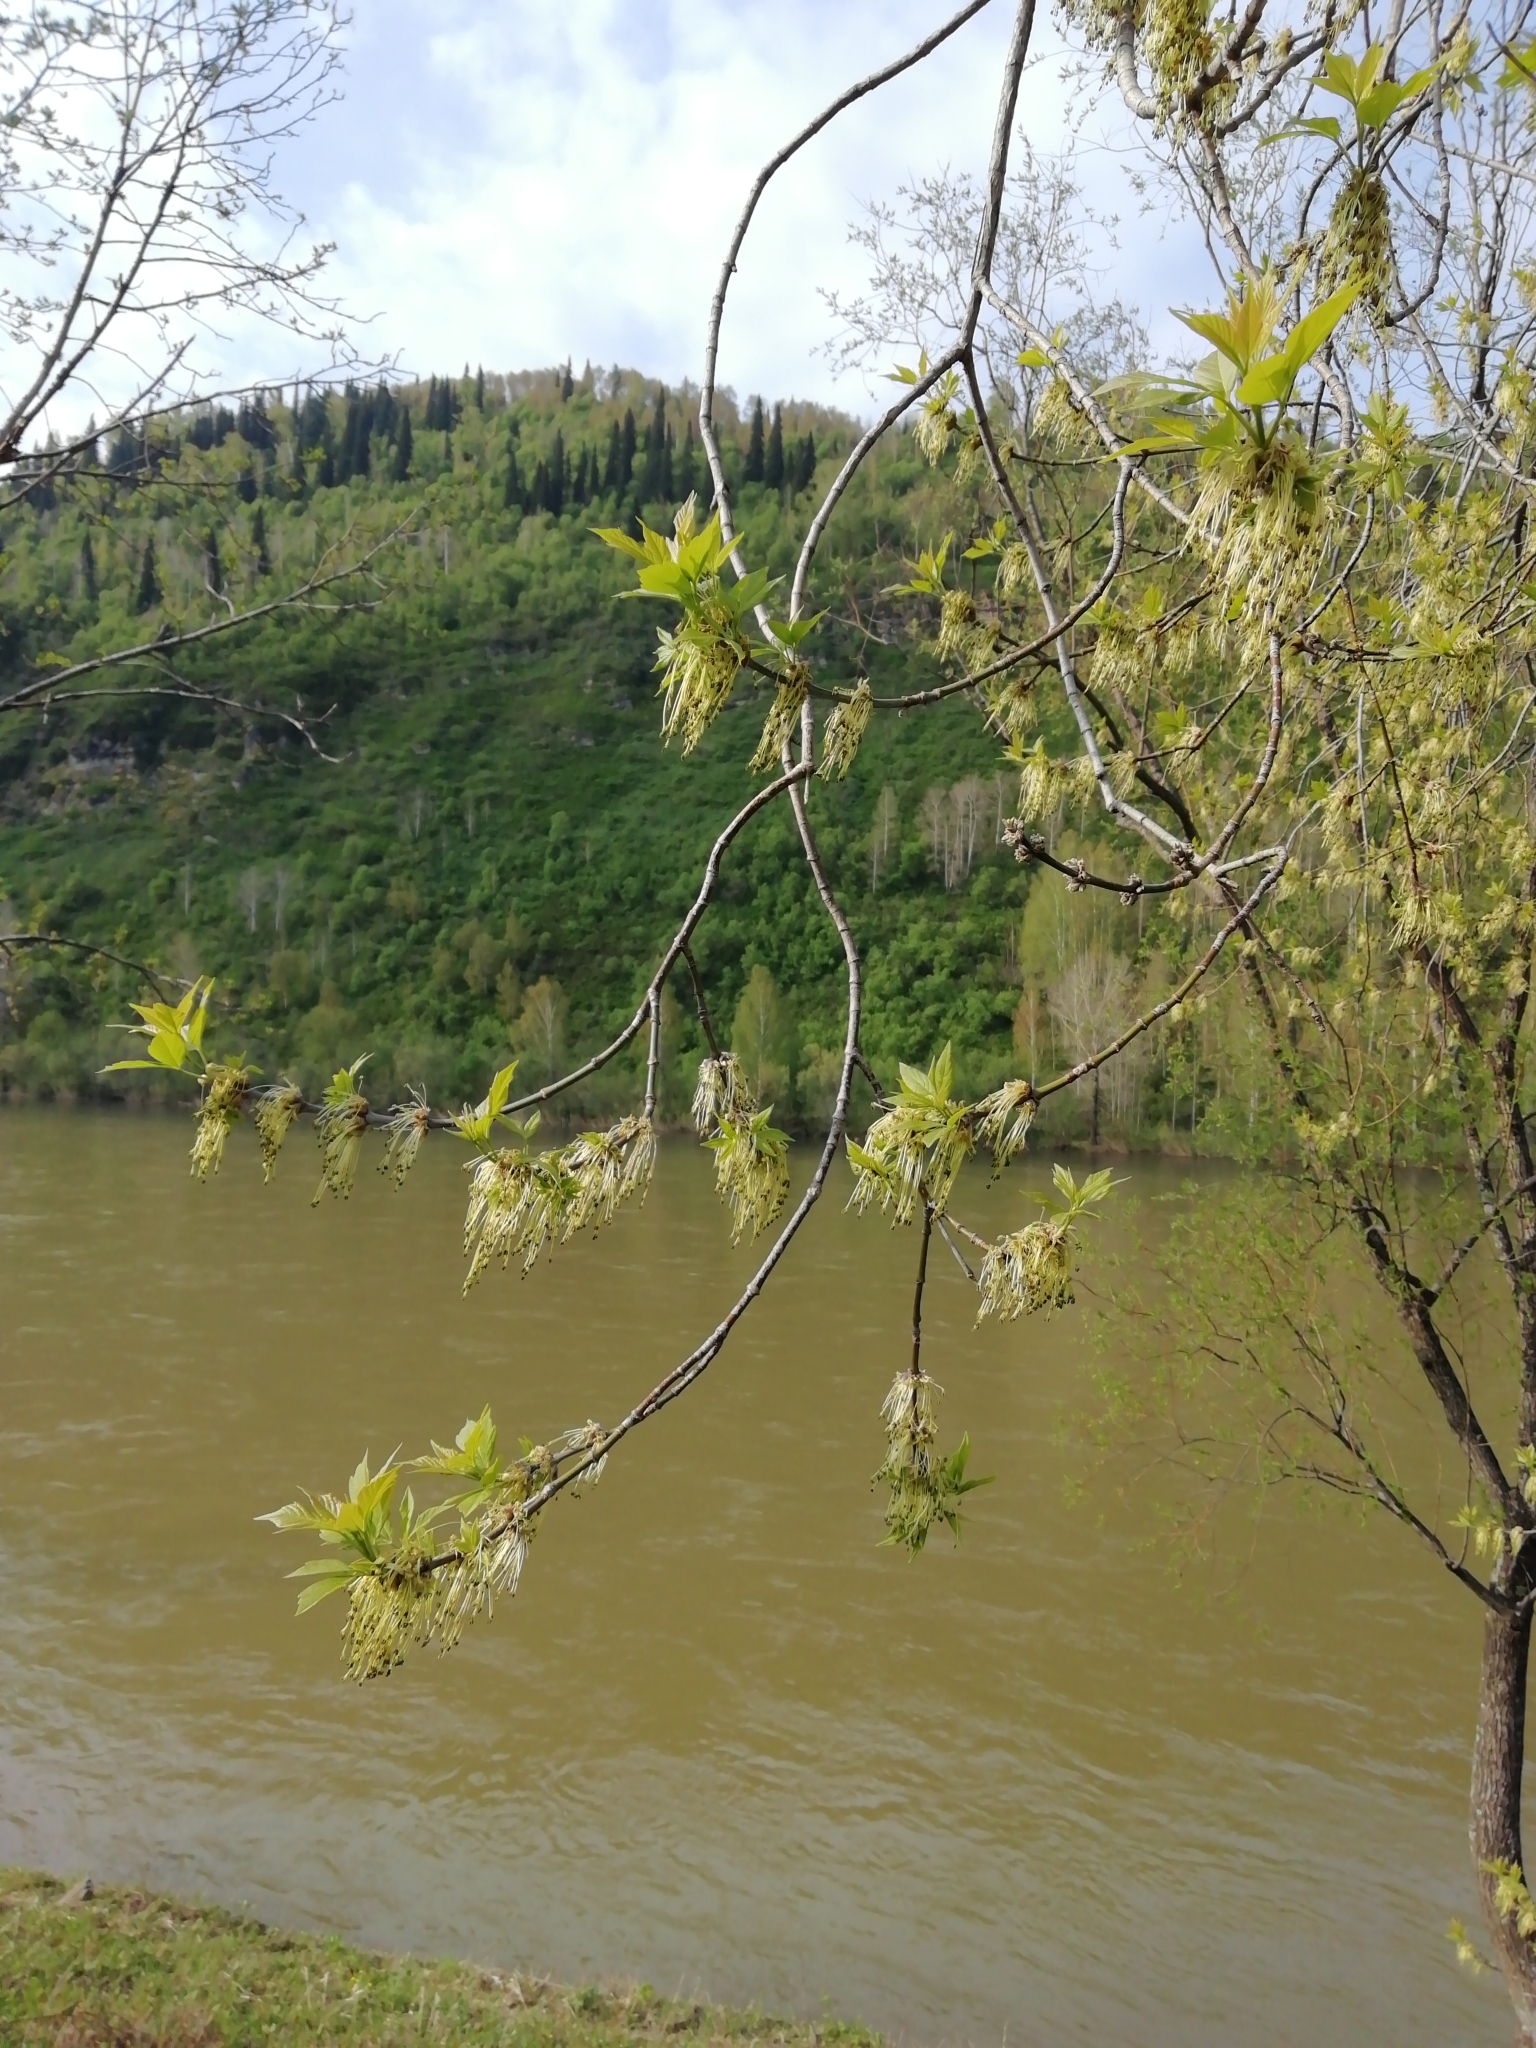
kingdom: Plantae
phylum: Tracheophyta
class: Magnoliopsida
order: Sapindales
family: Sapindaceae
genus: Acer
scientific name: Acer negundo
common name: Ashleaf maple
